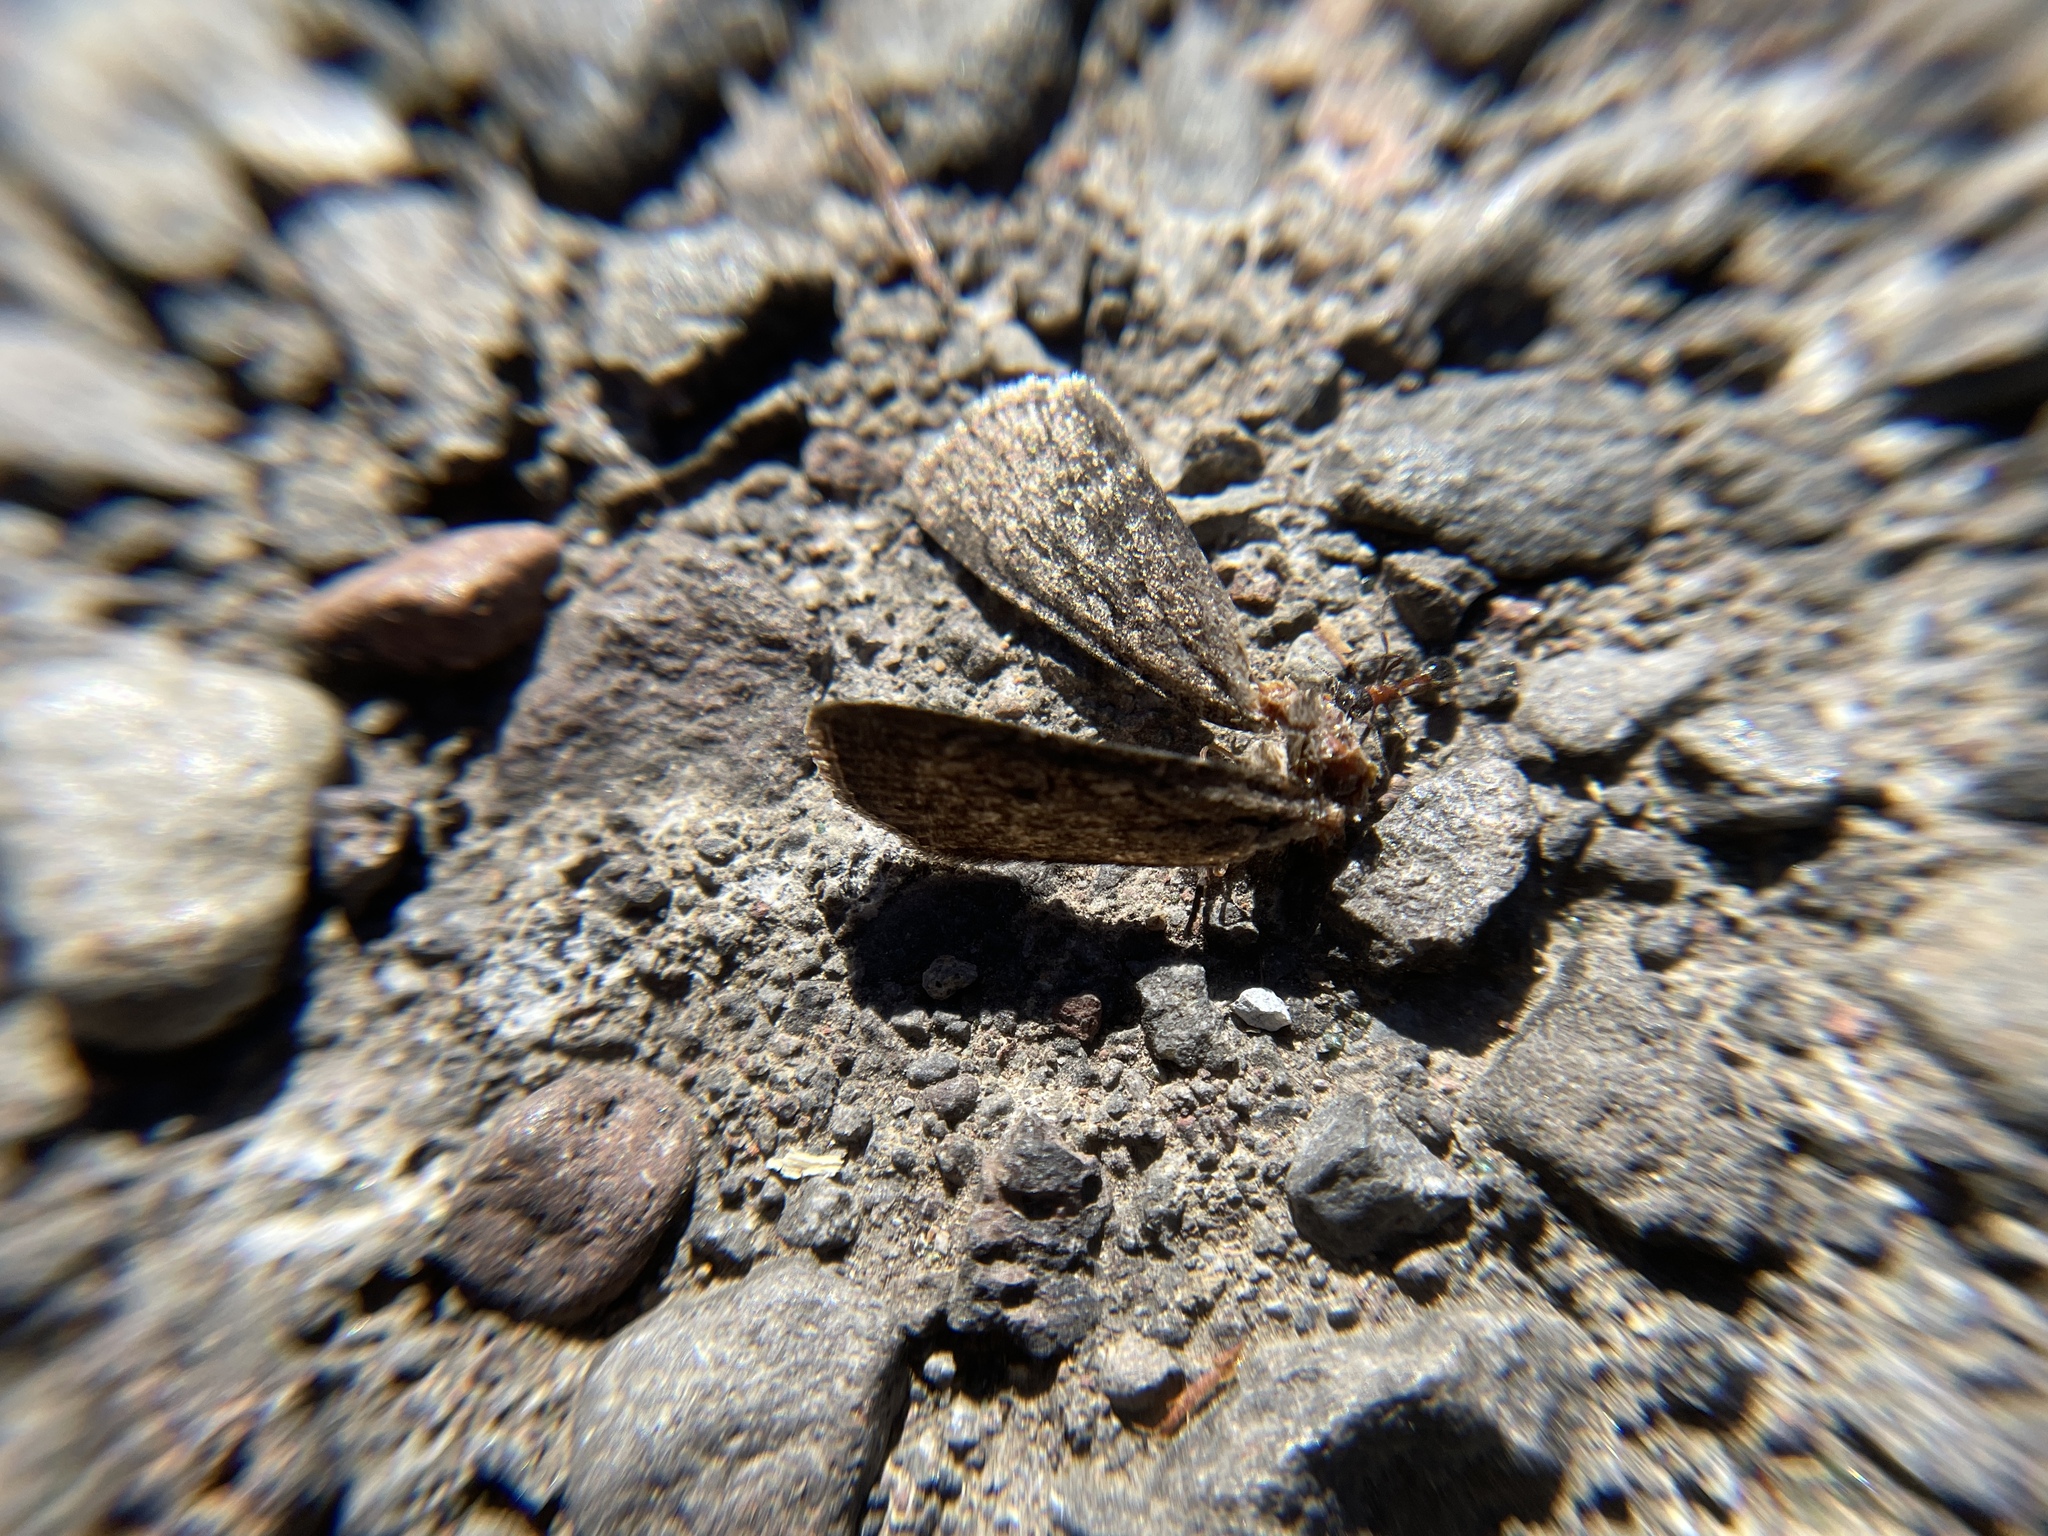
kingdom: Animalia
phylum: Arthropoda
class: Insecta
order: Hymenoptera
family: Formicidae
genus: Manica
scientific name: Manica bradleyi
